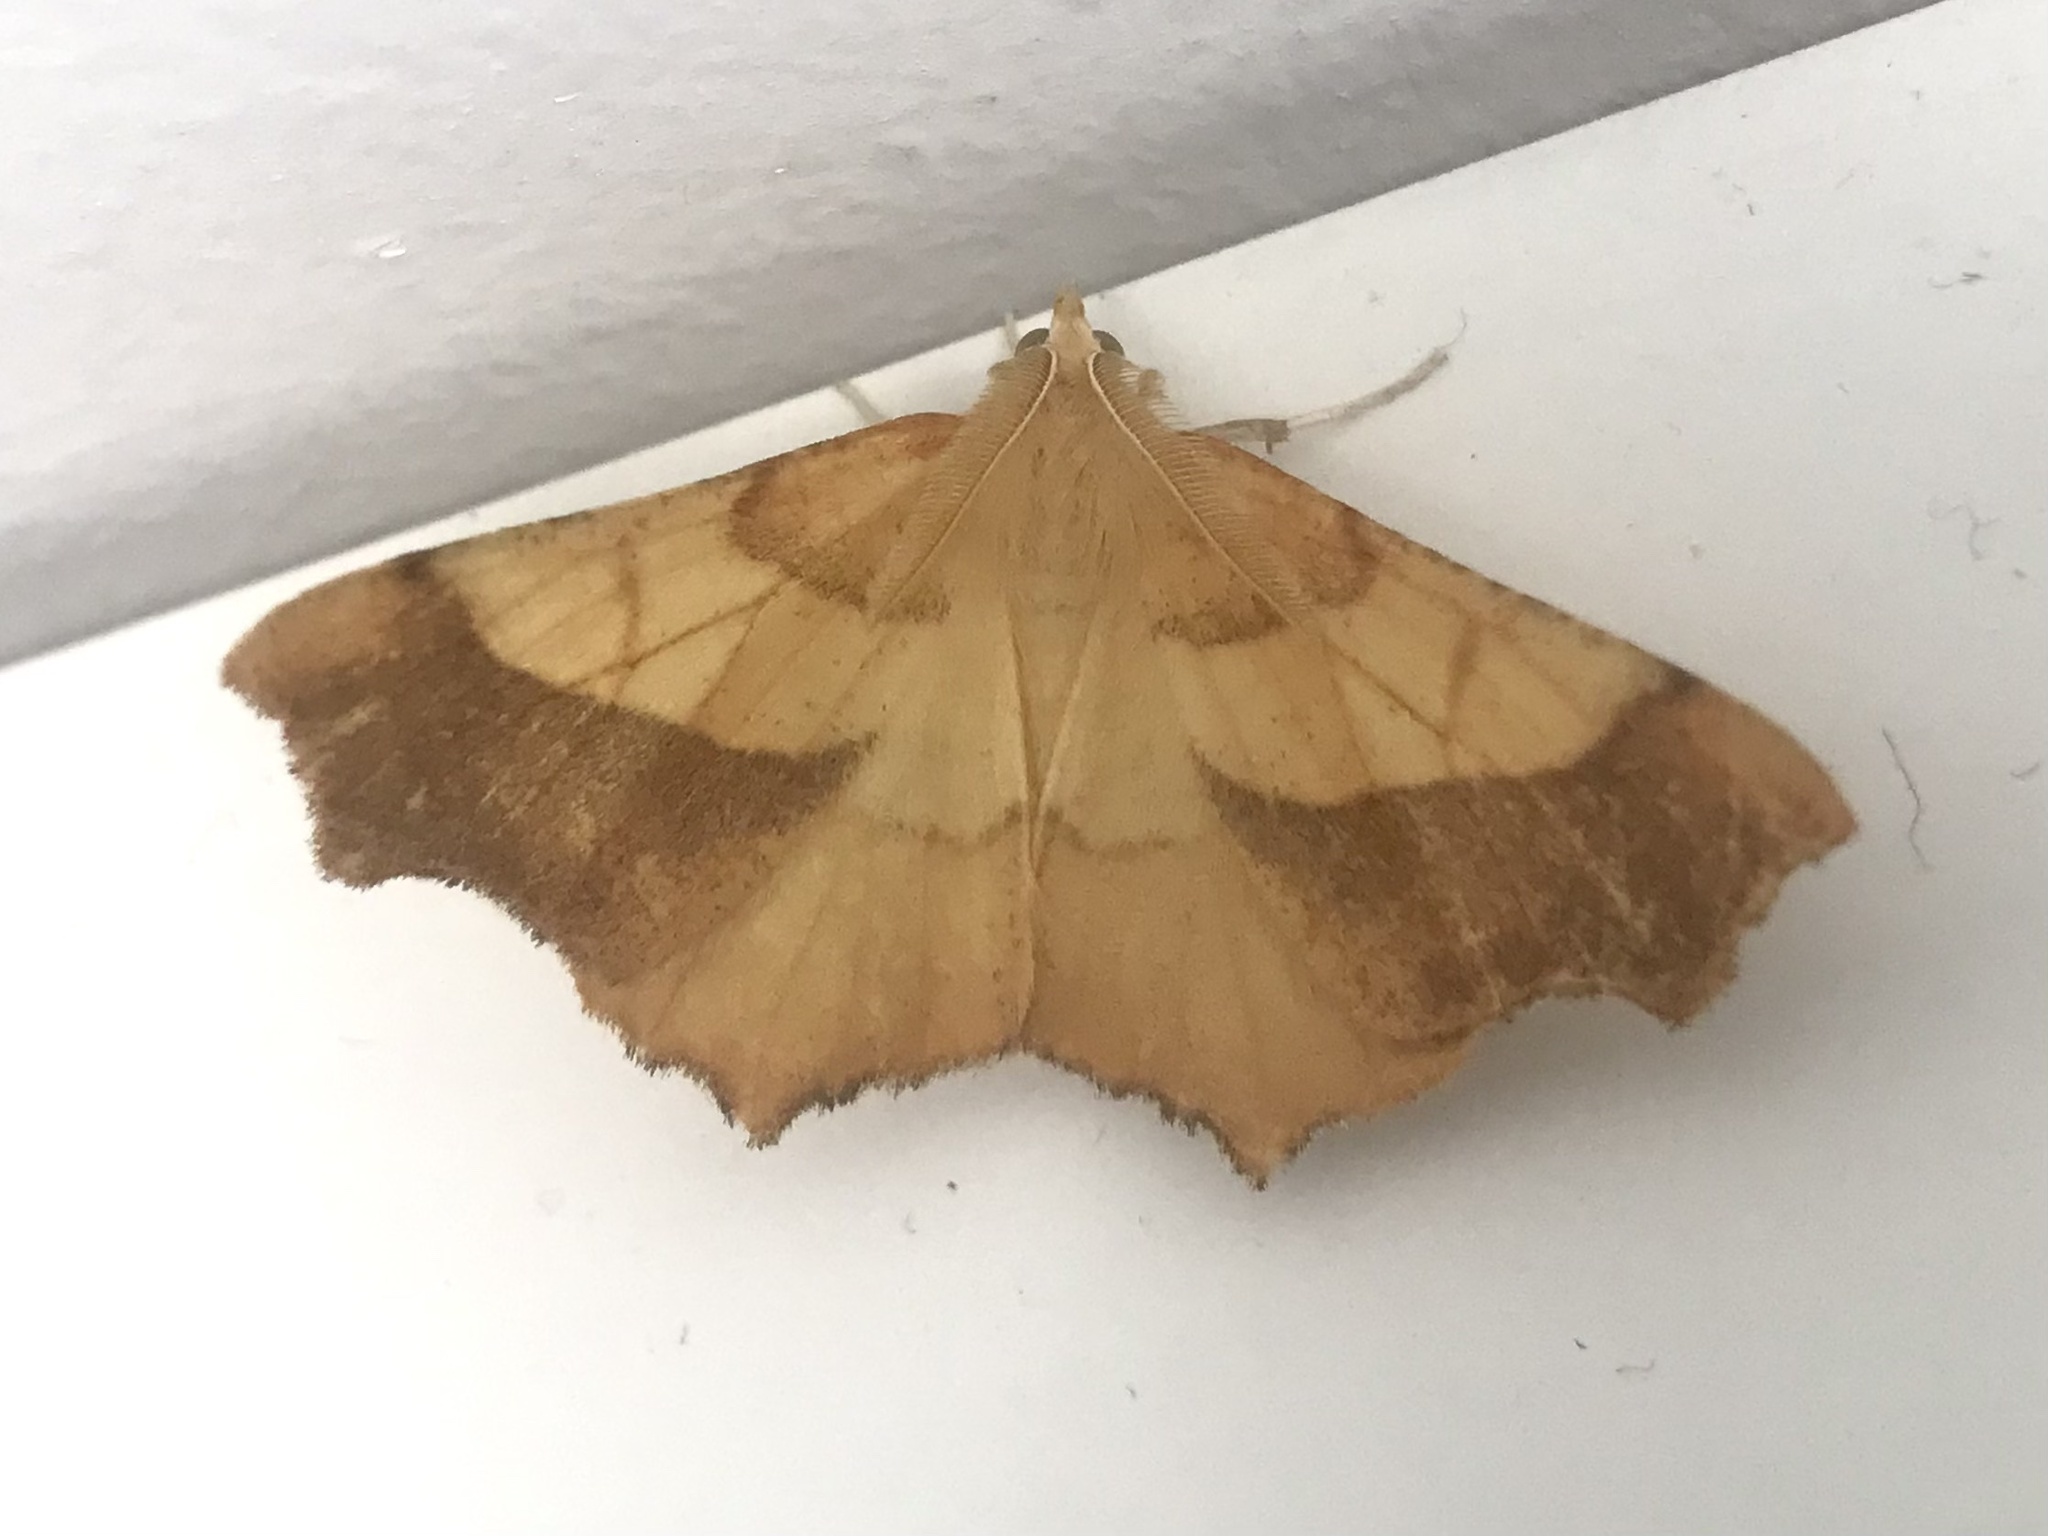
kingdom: Animalia
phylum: Arthropoda
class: Insecta
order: Lepidoptera
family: Geometridae
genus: Ennomos
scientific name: Ennomos quercinaria
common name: August thorn
